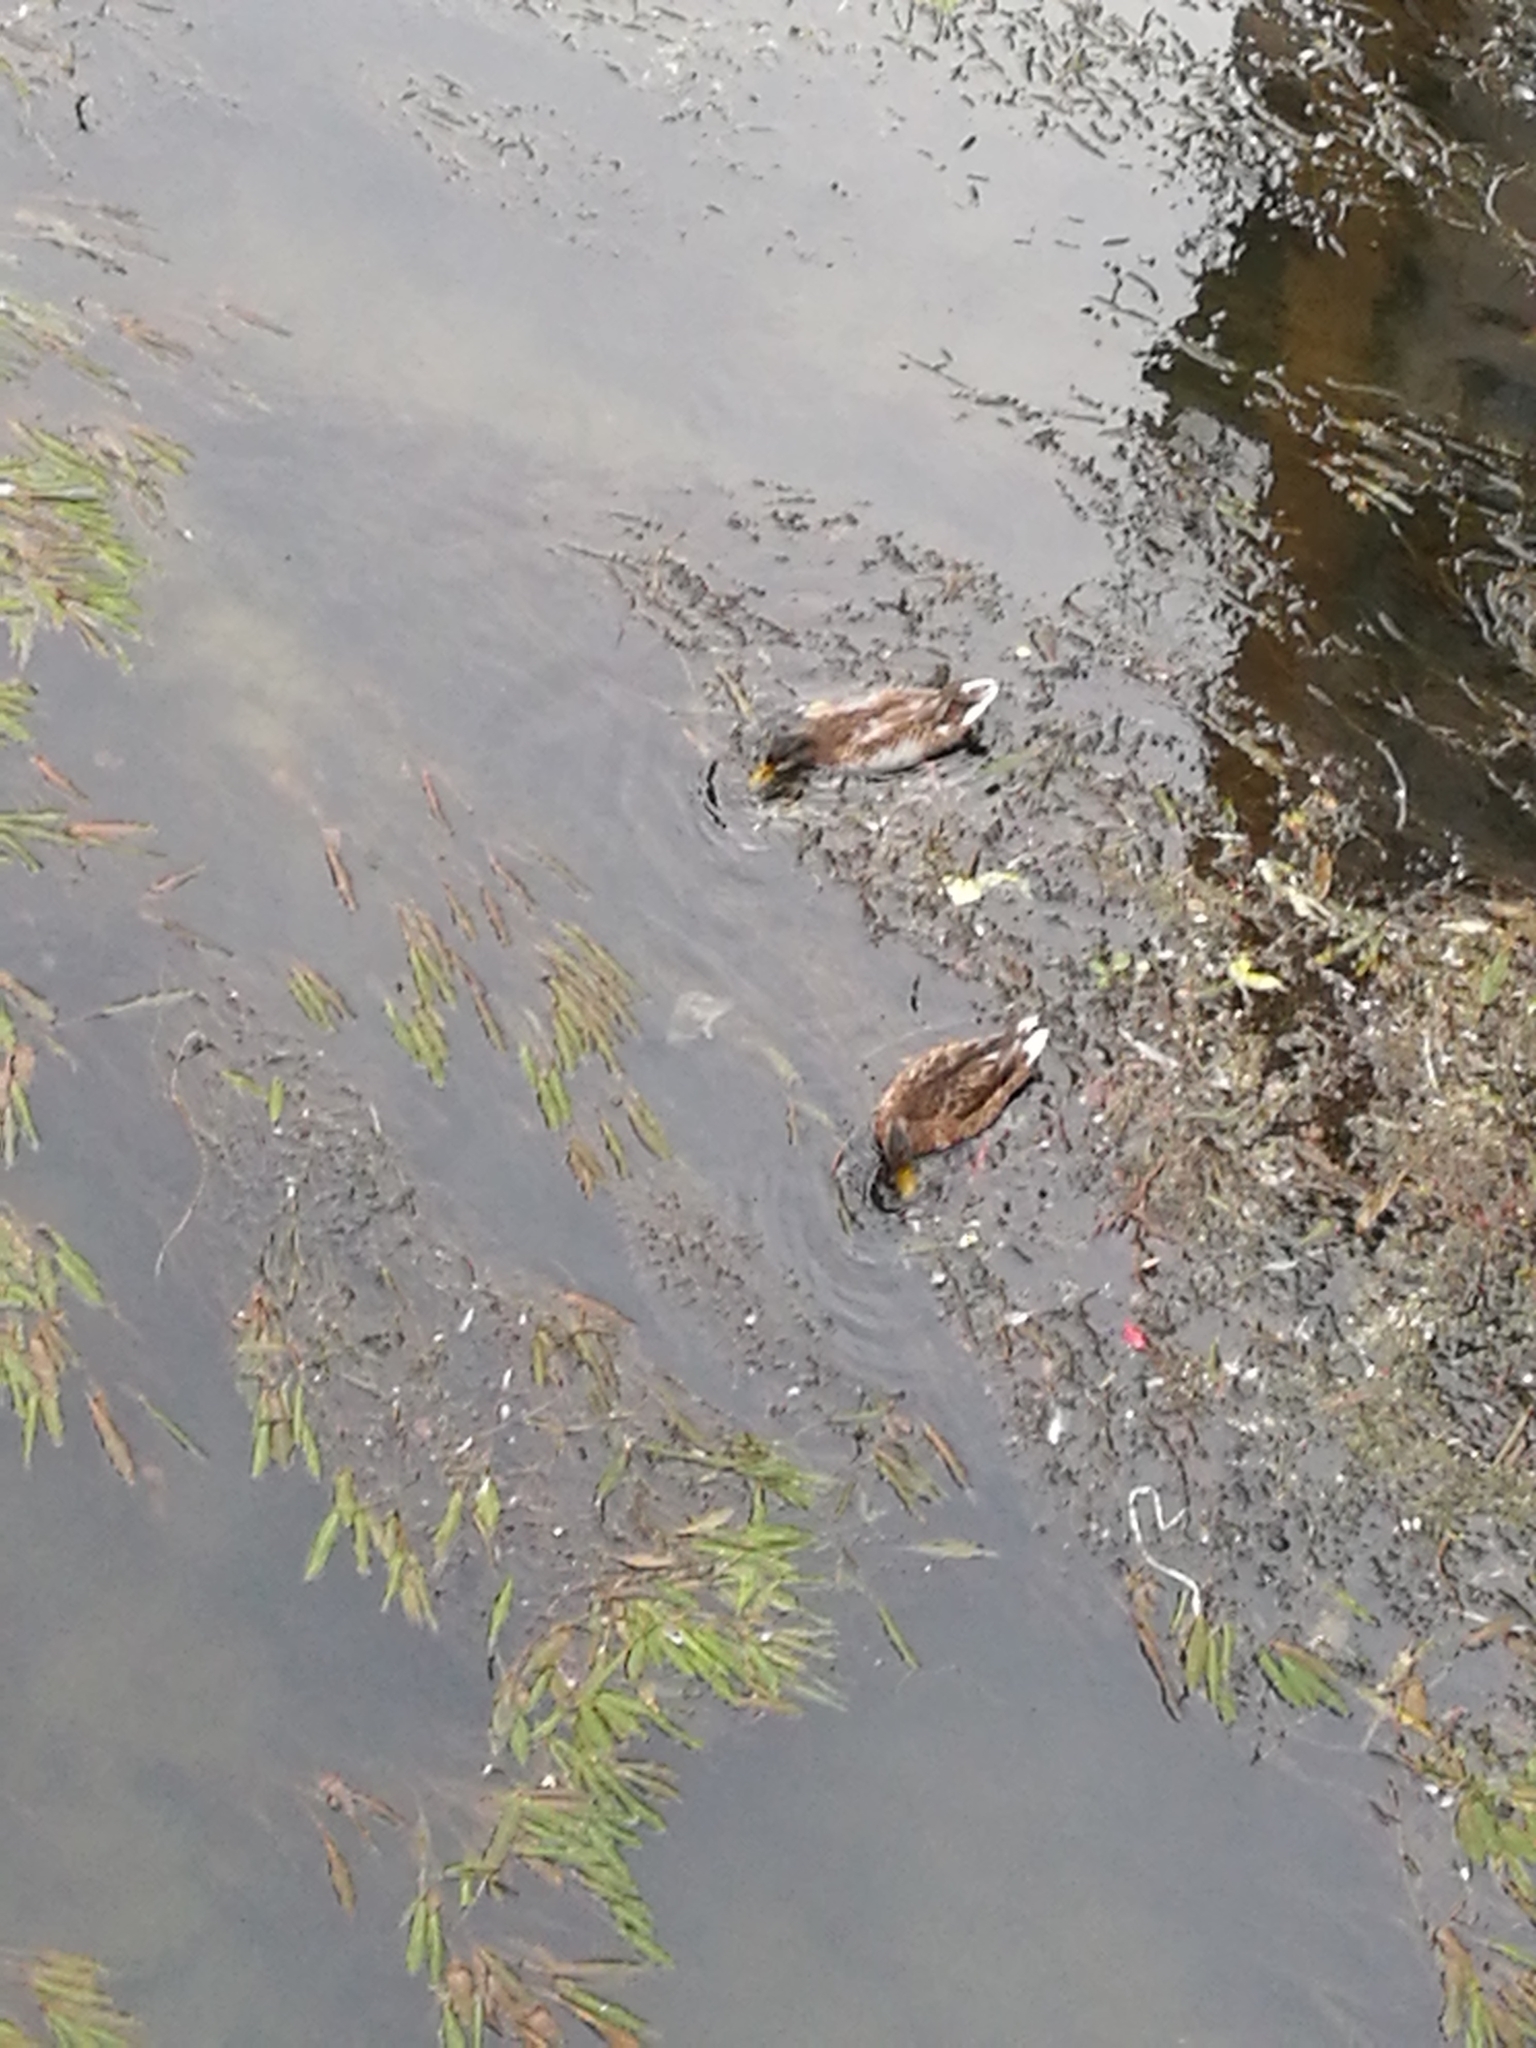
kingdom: Animalia
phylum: Chordata
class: Aves
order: Anseriformes
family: Anatidae
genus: Anas
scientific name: Anas platyrhynchos
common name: Mallard
